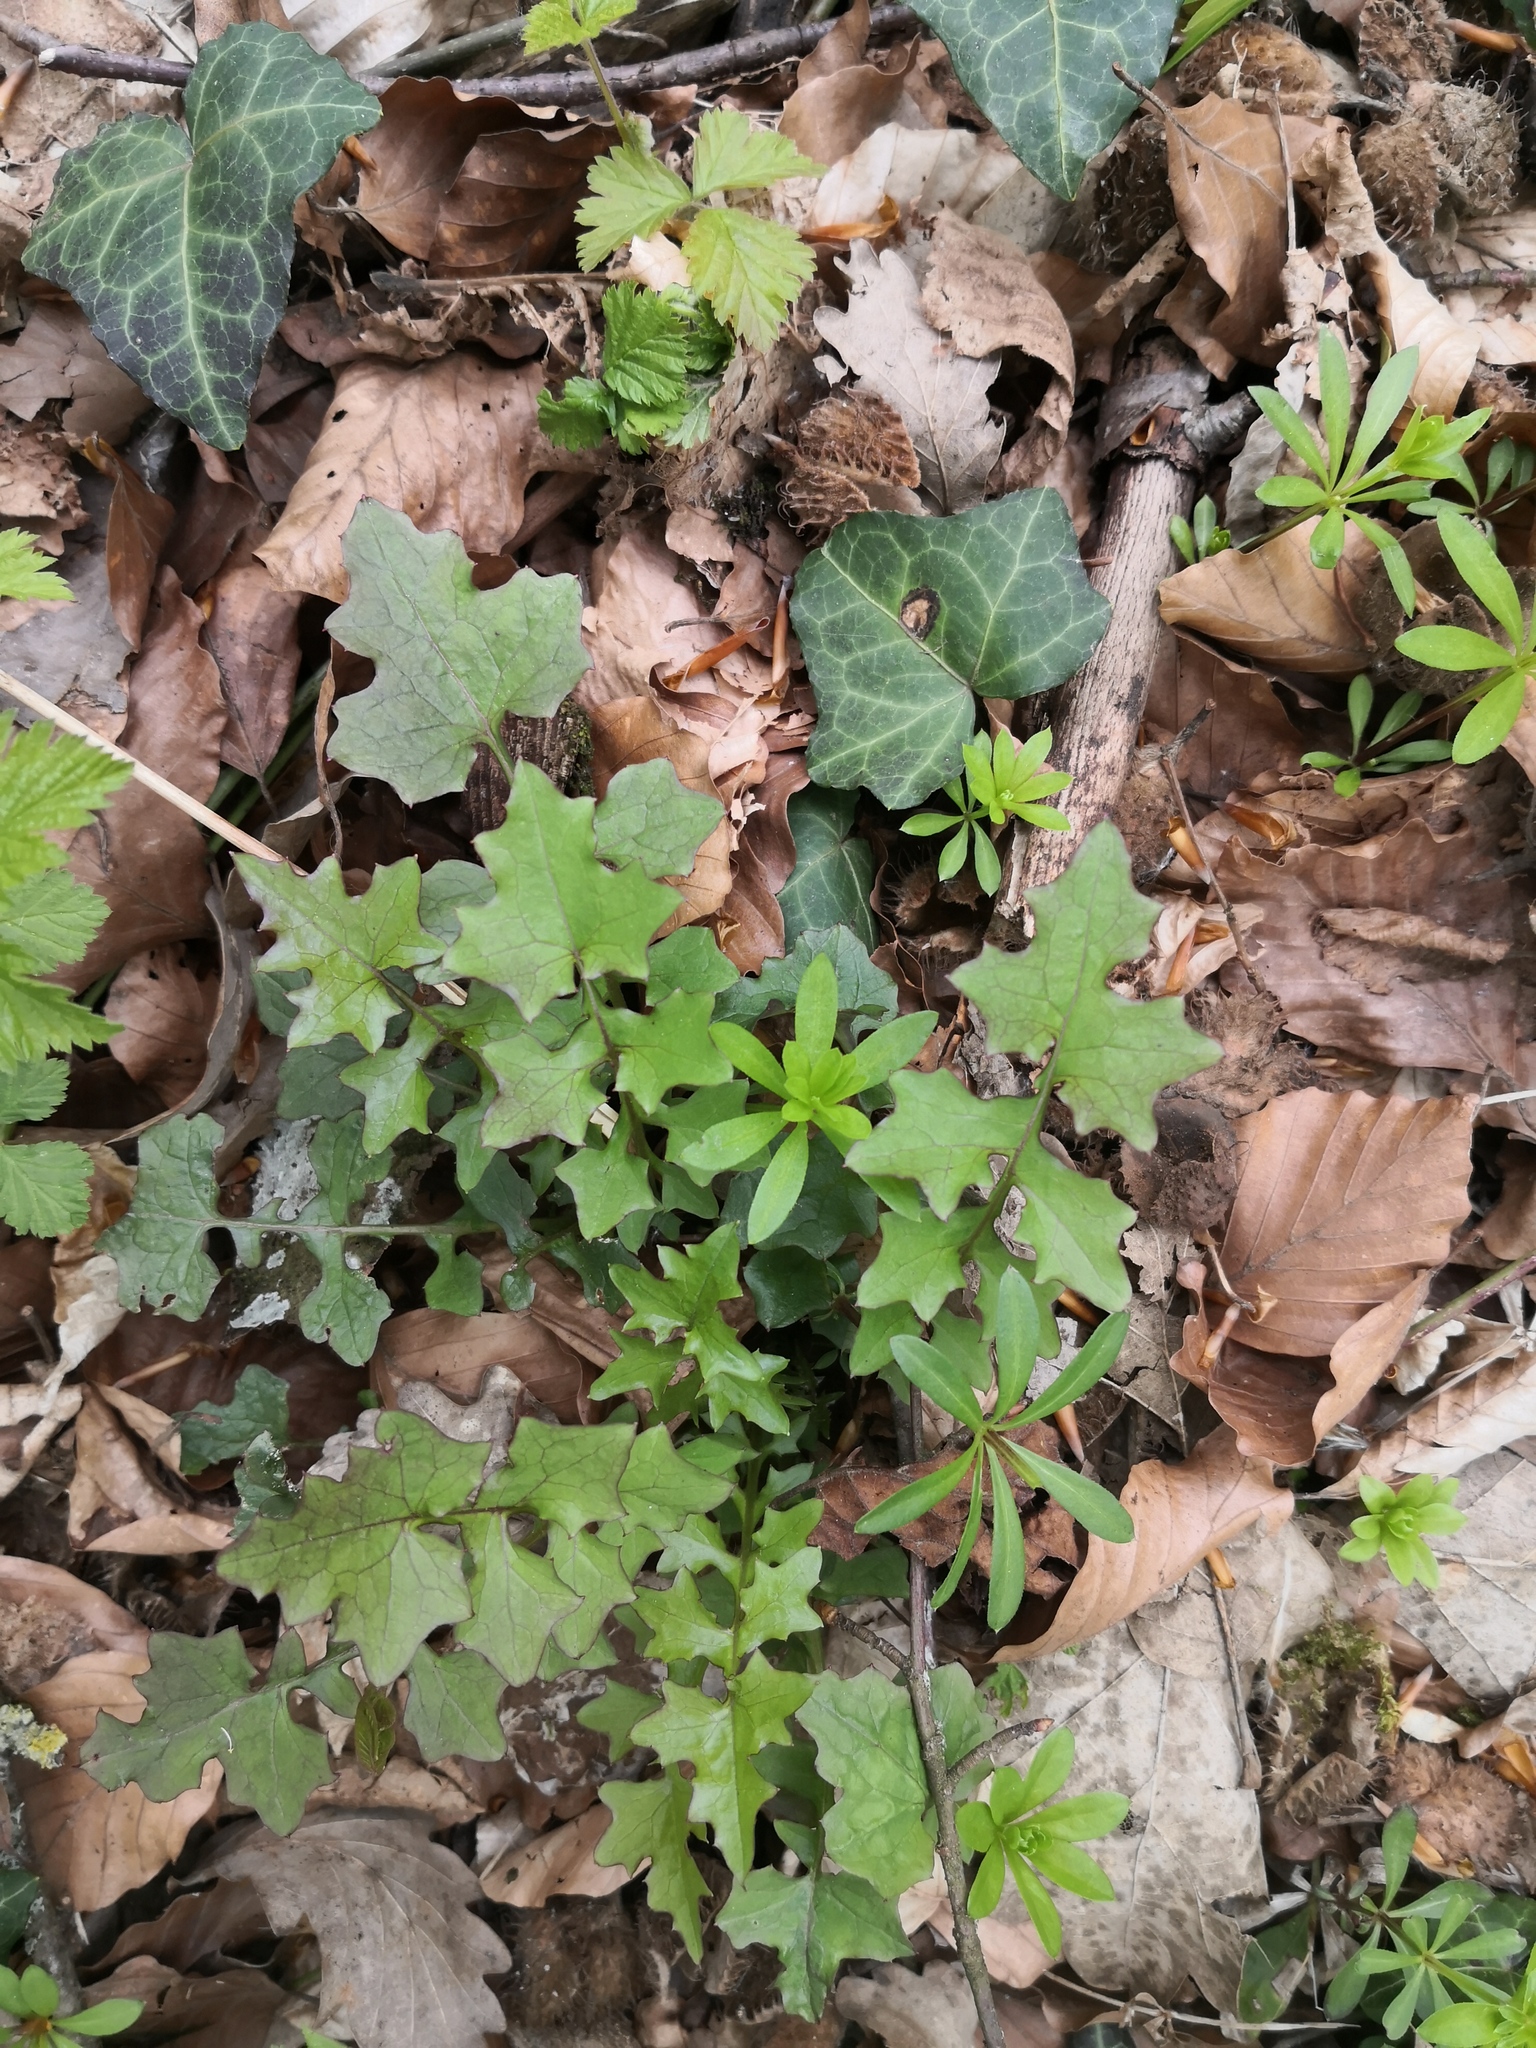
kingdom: Plantae
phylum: Tracheophyta
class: Magnoliopsida
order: Asterales
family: Asteraceae
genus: Mycelis
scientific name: Mycelis muralis
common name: Wall lettuce
